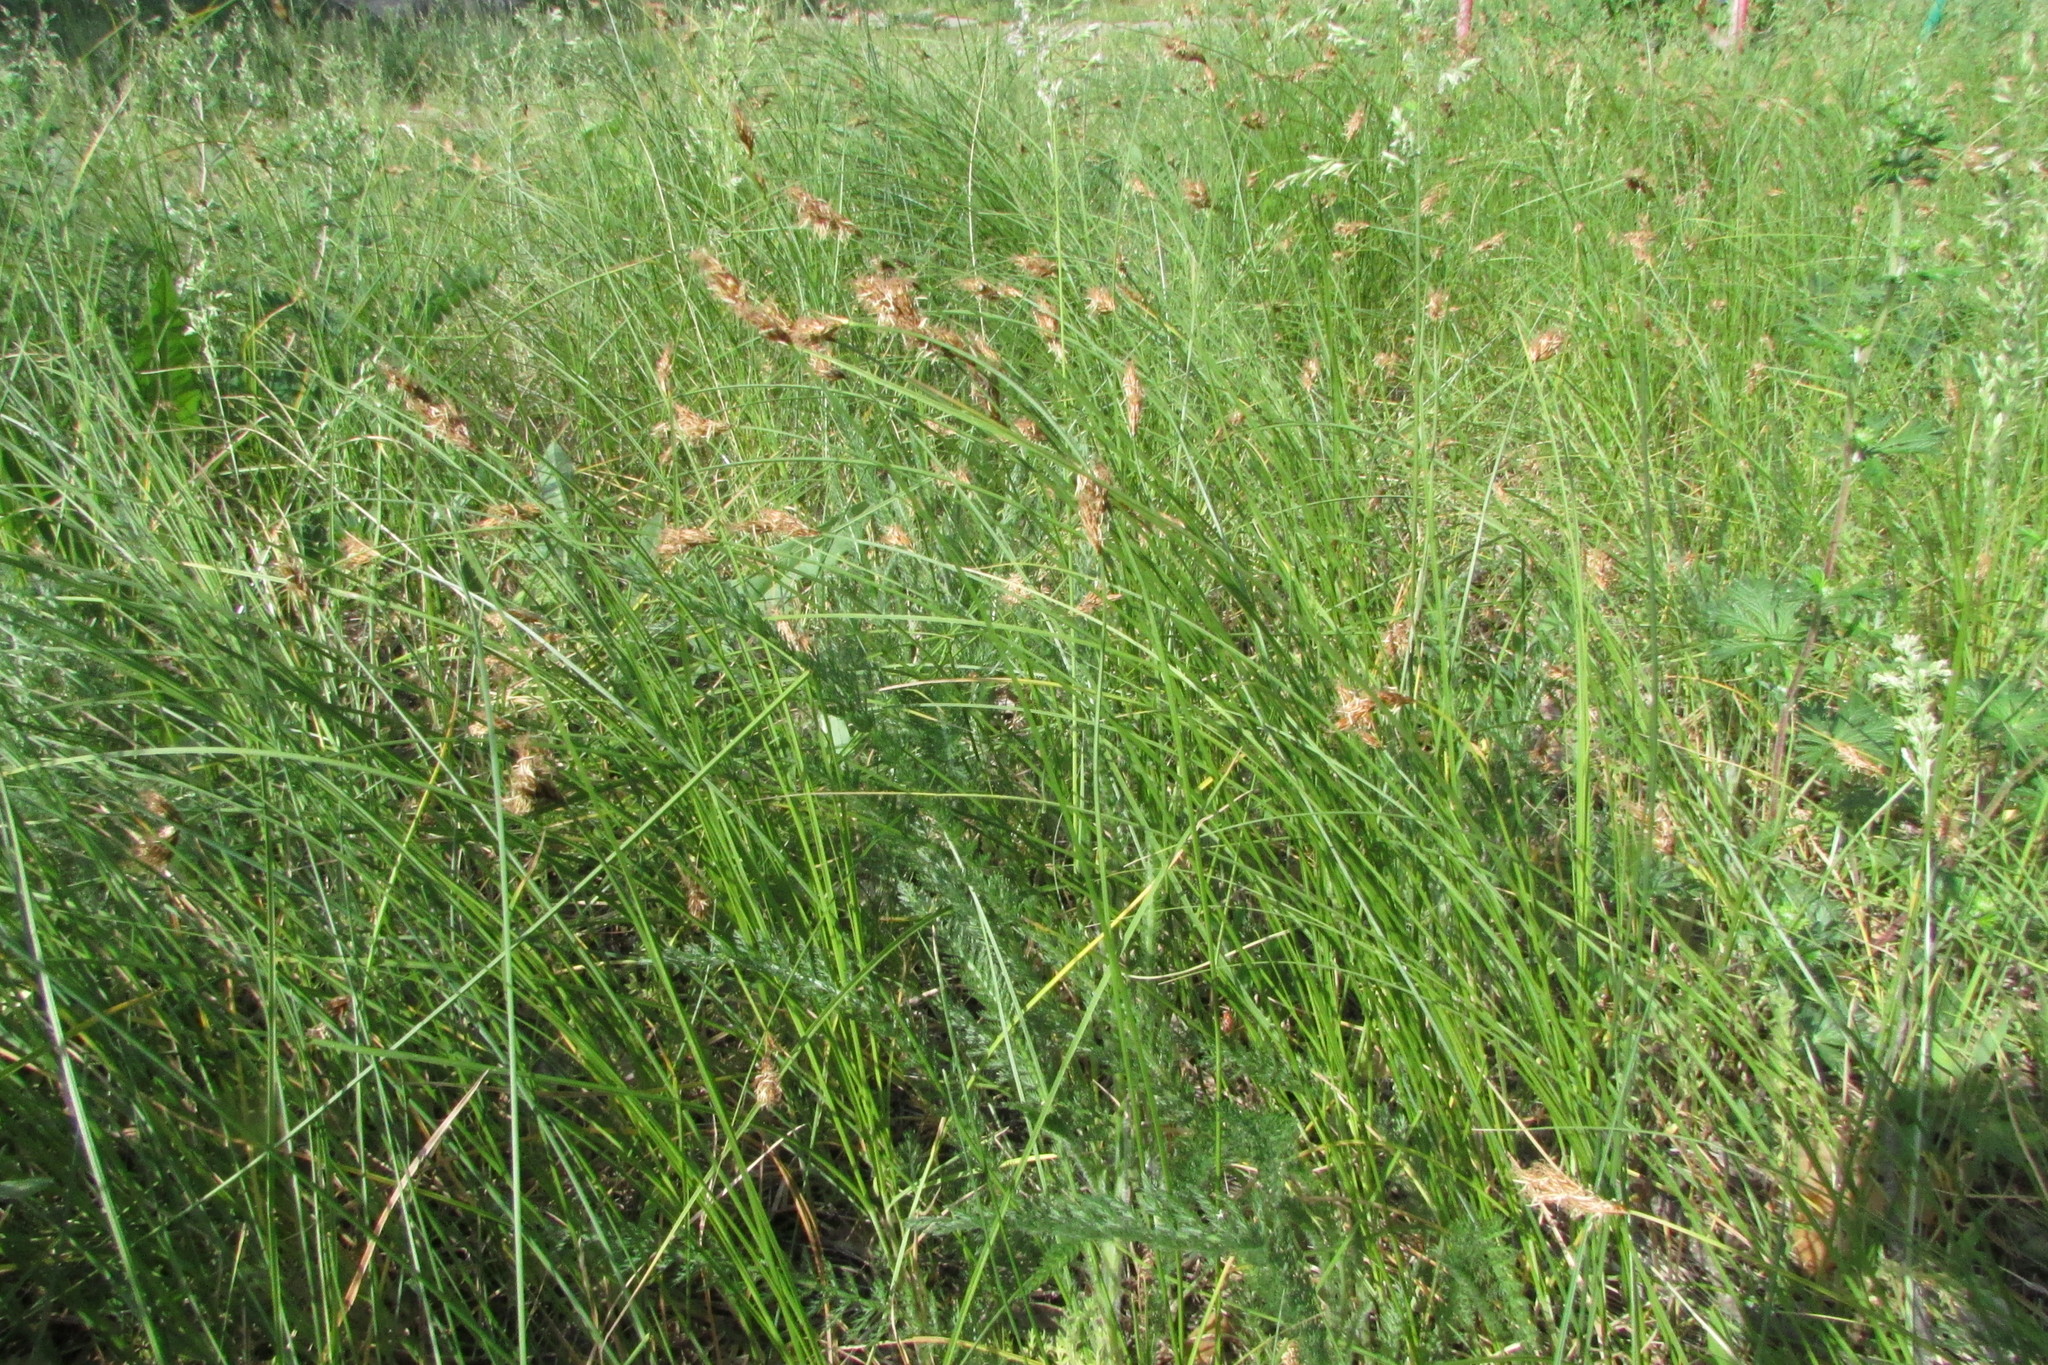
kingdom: Plantae
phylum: Tracheophyta
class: Liliopsida
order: Poales
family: Cyperaceae
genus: Carex
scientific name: Carex praecox
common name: Early sedge
